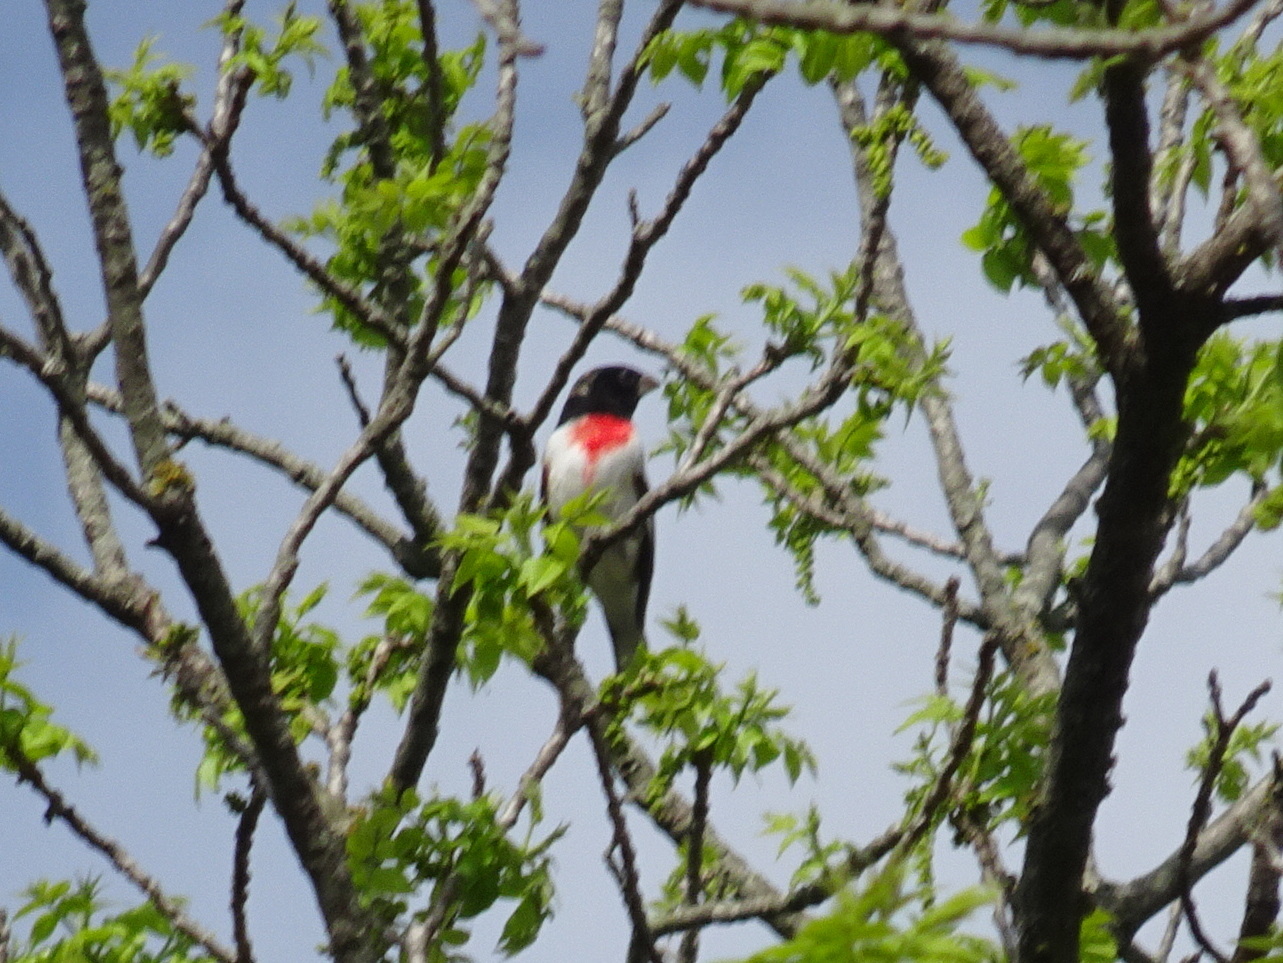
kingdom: Animalia
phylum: Chordata
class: Aves
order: Passeriformes
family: Cardinalidae
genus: Pheucticus
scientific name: Pheucticus ludovicianus
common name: Rose-breasted grosbeak
